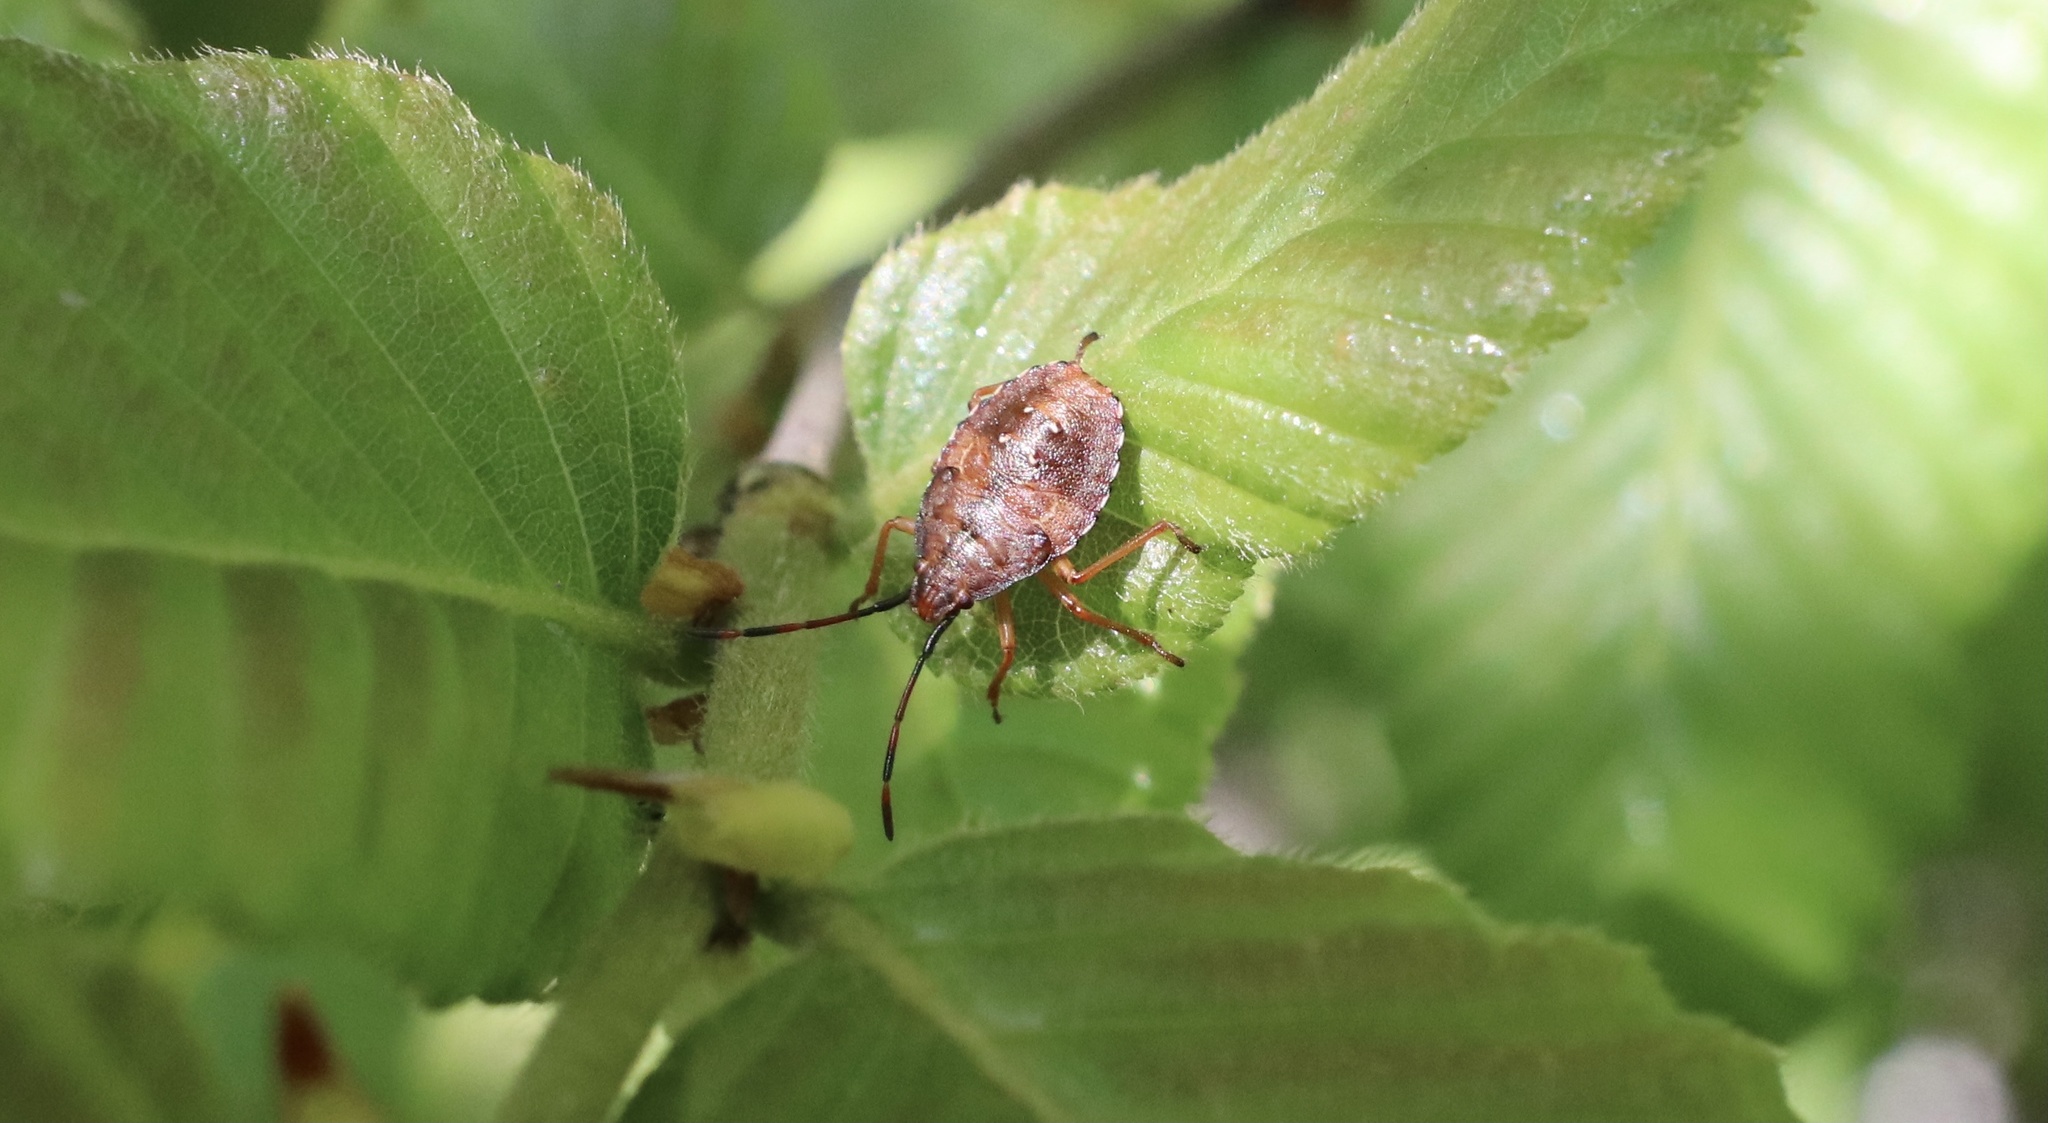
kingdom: Animalia
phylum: Arthropoda
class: Insecta
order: Hemiptera
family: Acanthosomatidae
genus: Planois
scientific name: Planois gayi
